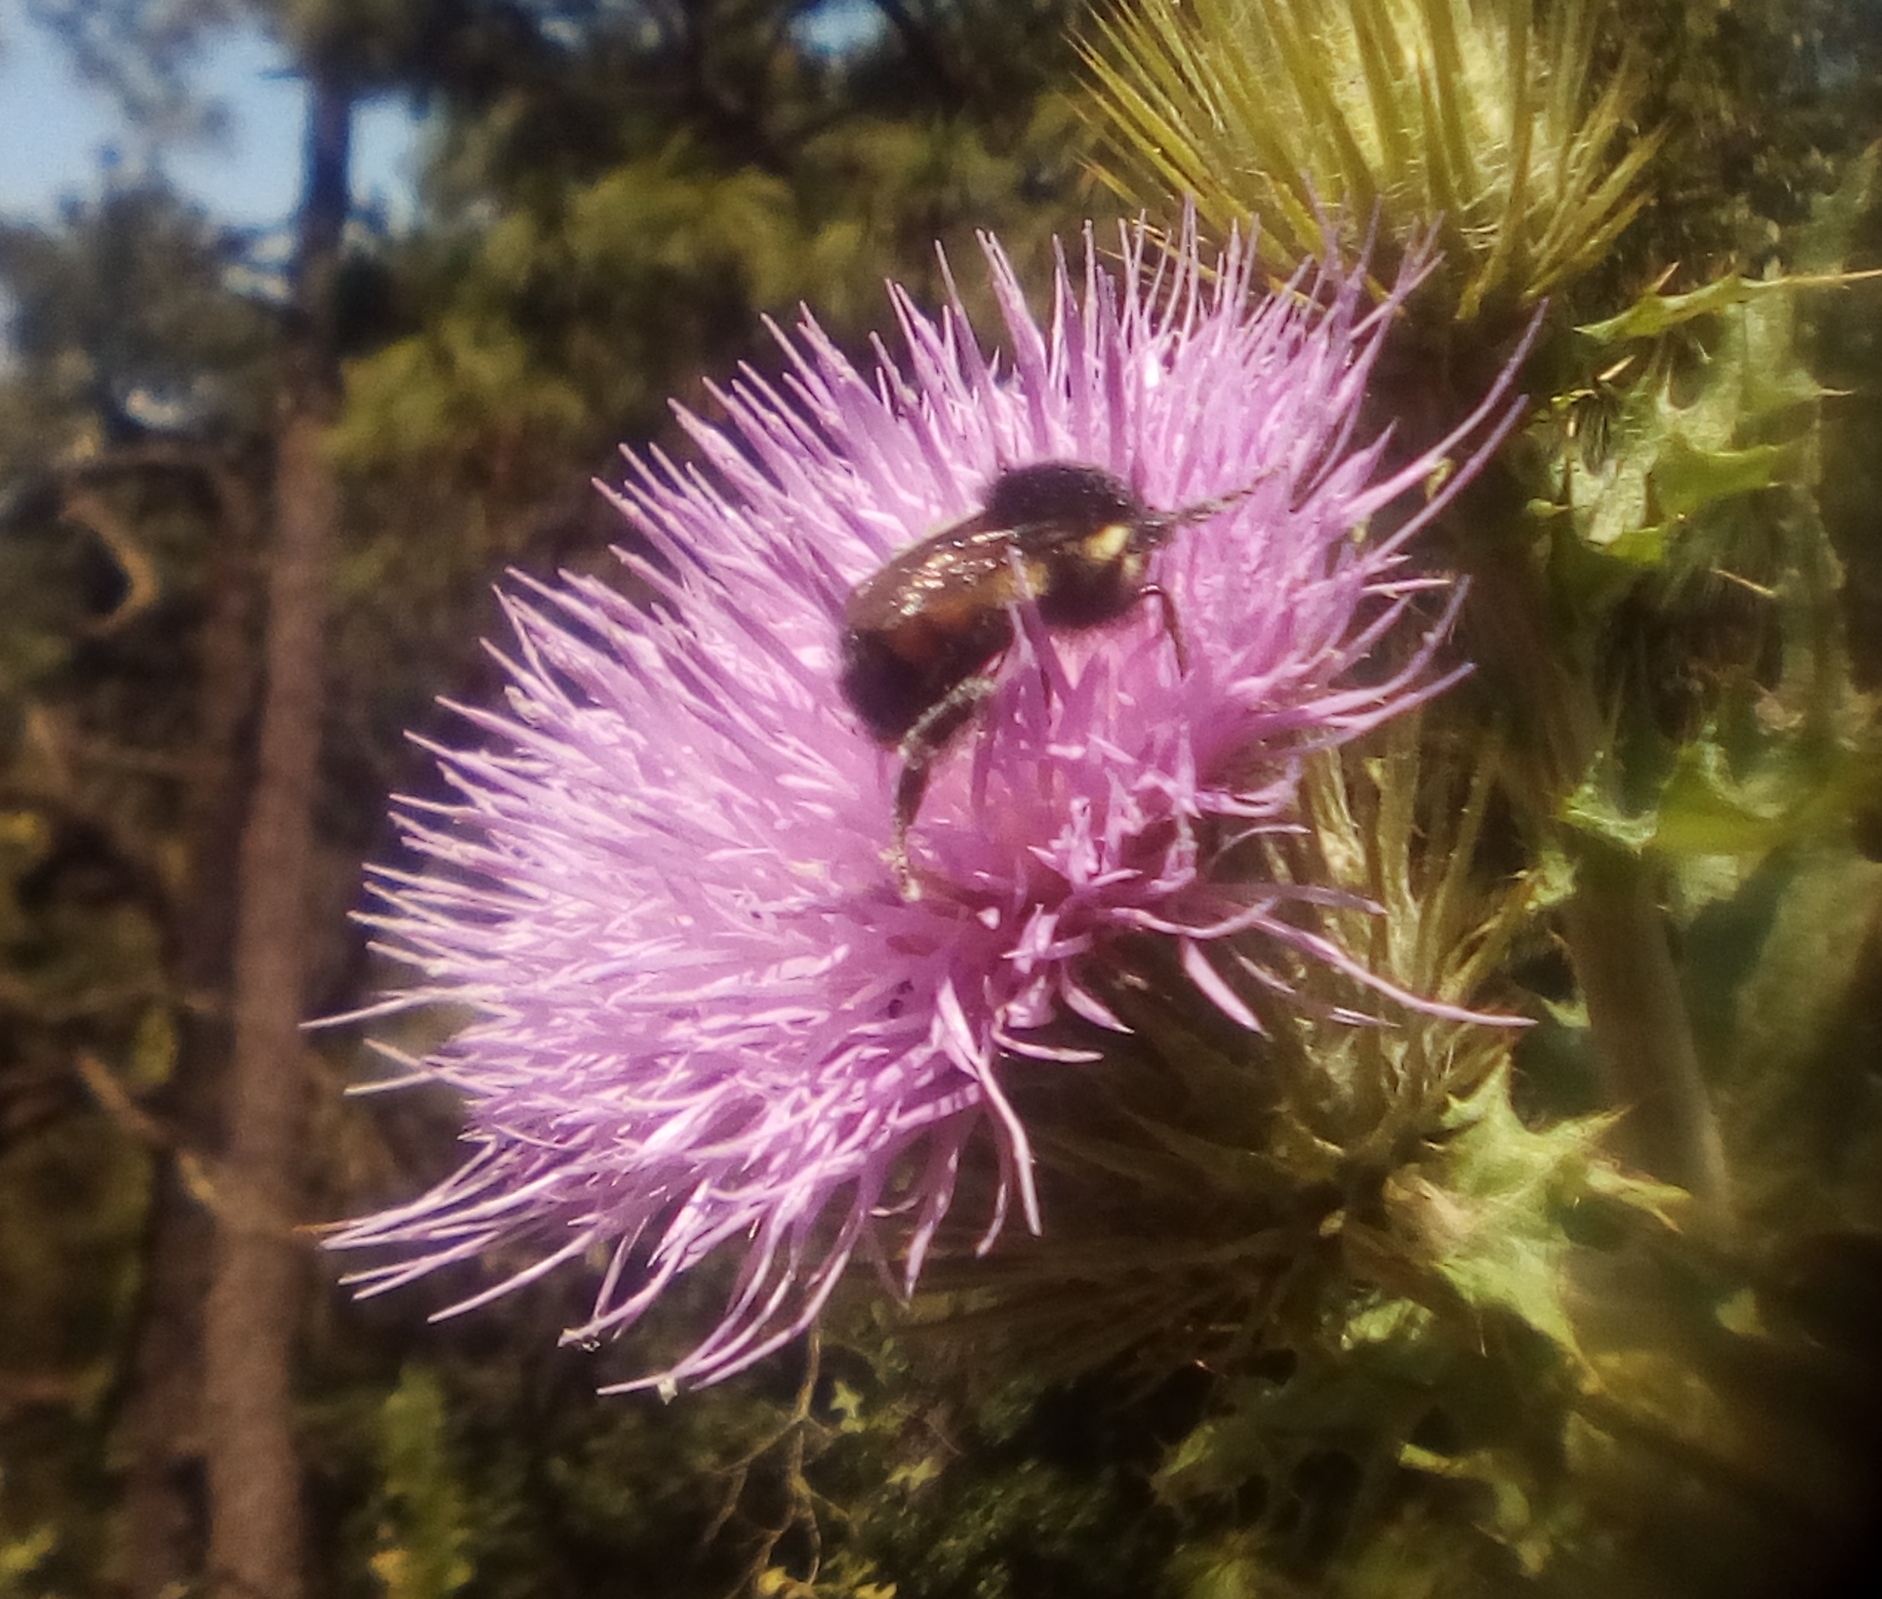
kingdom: Animalia
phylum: Arthropoda
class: Insecta
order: Hymenoptera
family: Apidae
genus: Bombus
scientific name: Bombus ephippiatus
